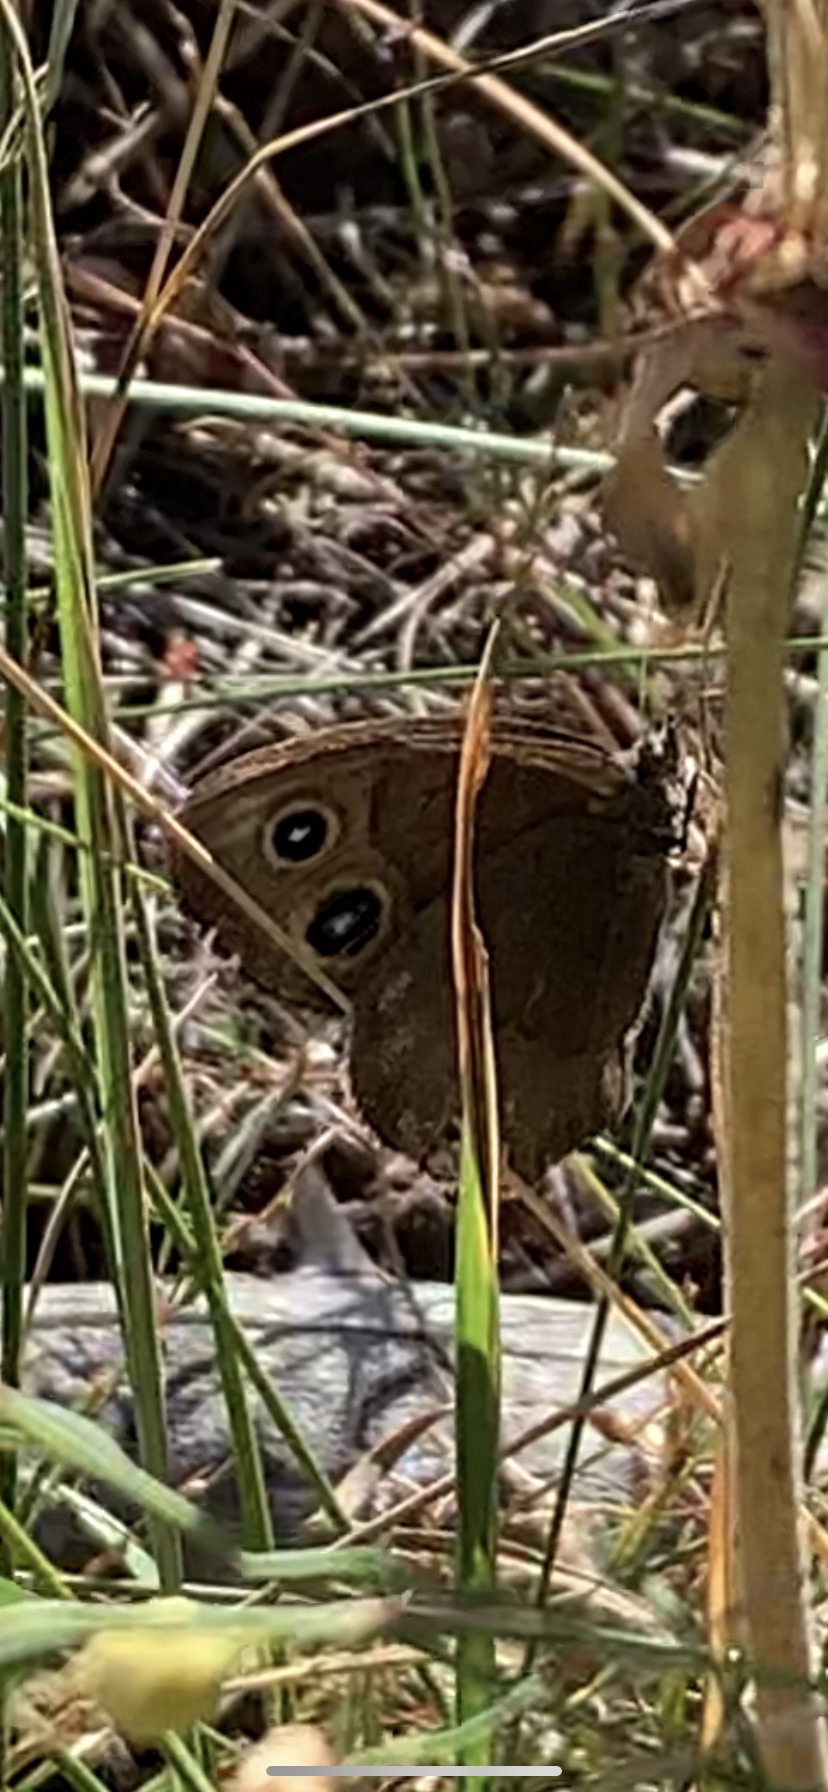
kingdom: Animalia
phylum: Arthropoda
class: Insecta
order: Lepidoptera
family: Nymphalidae
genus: Cercyonis
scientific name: Cercyonis pegala
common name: Common wood-nymph
